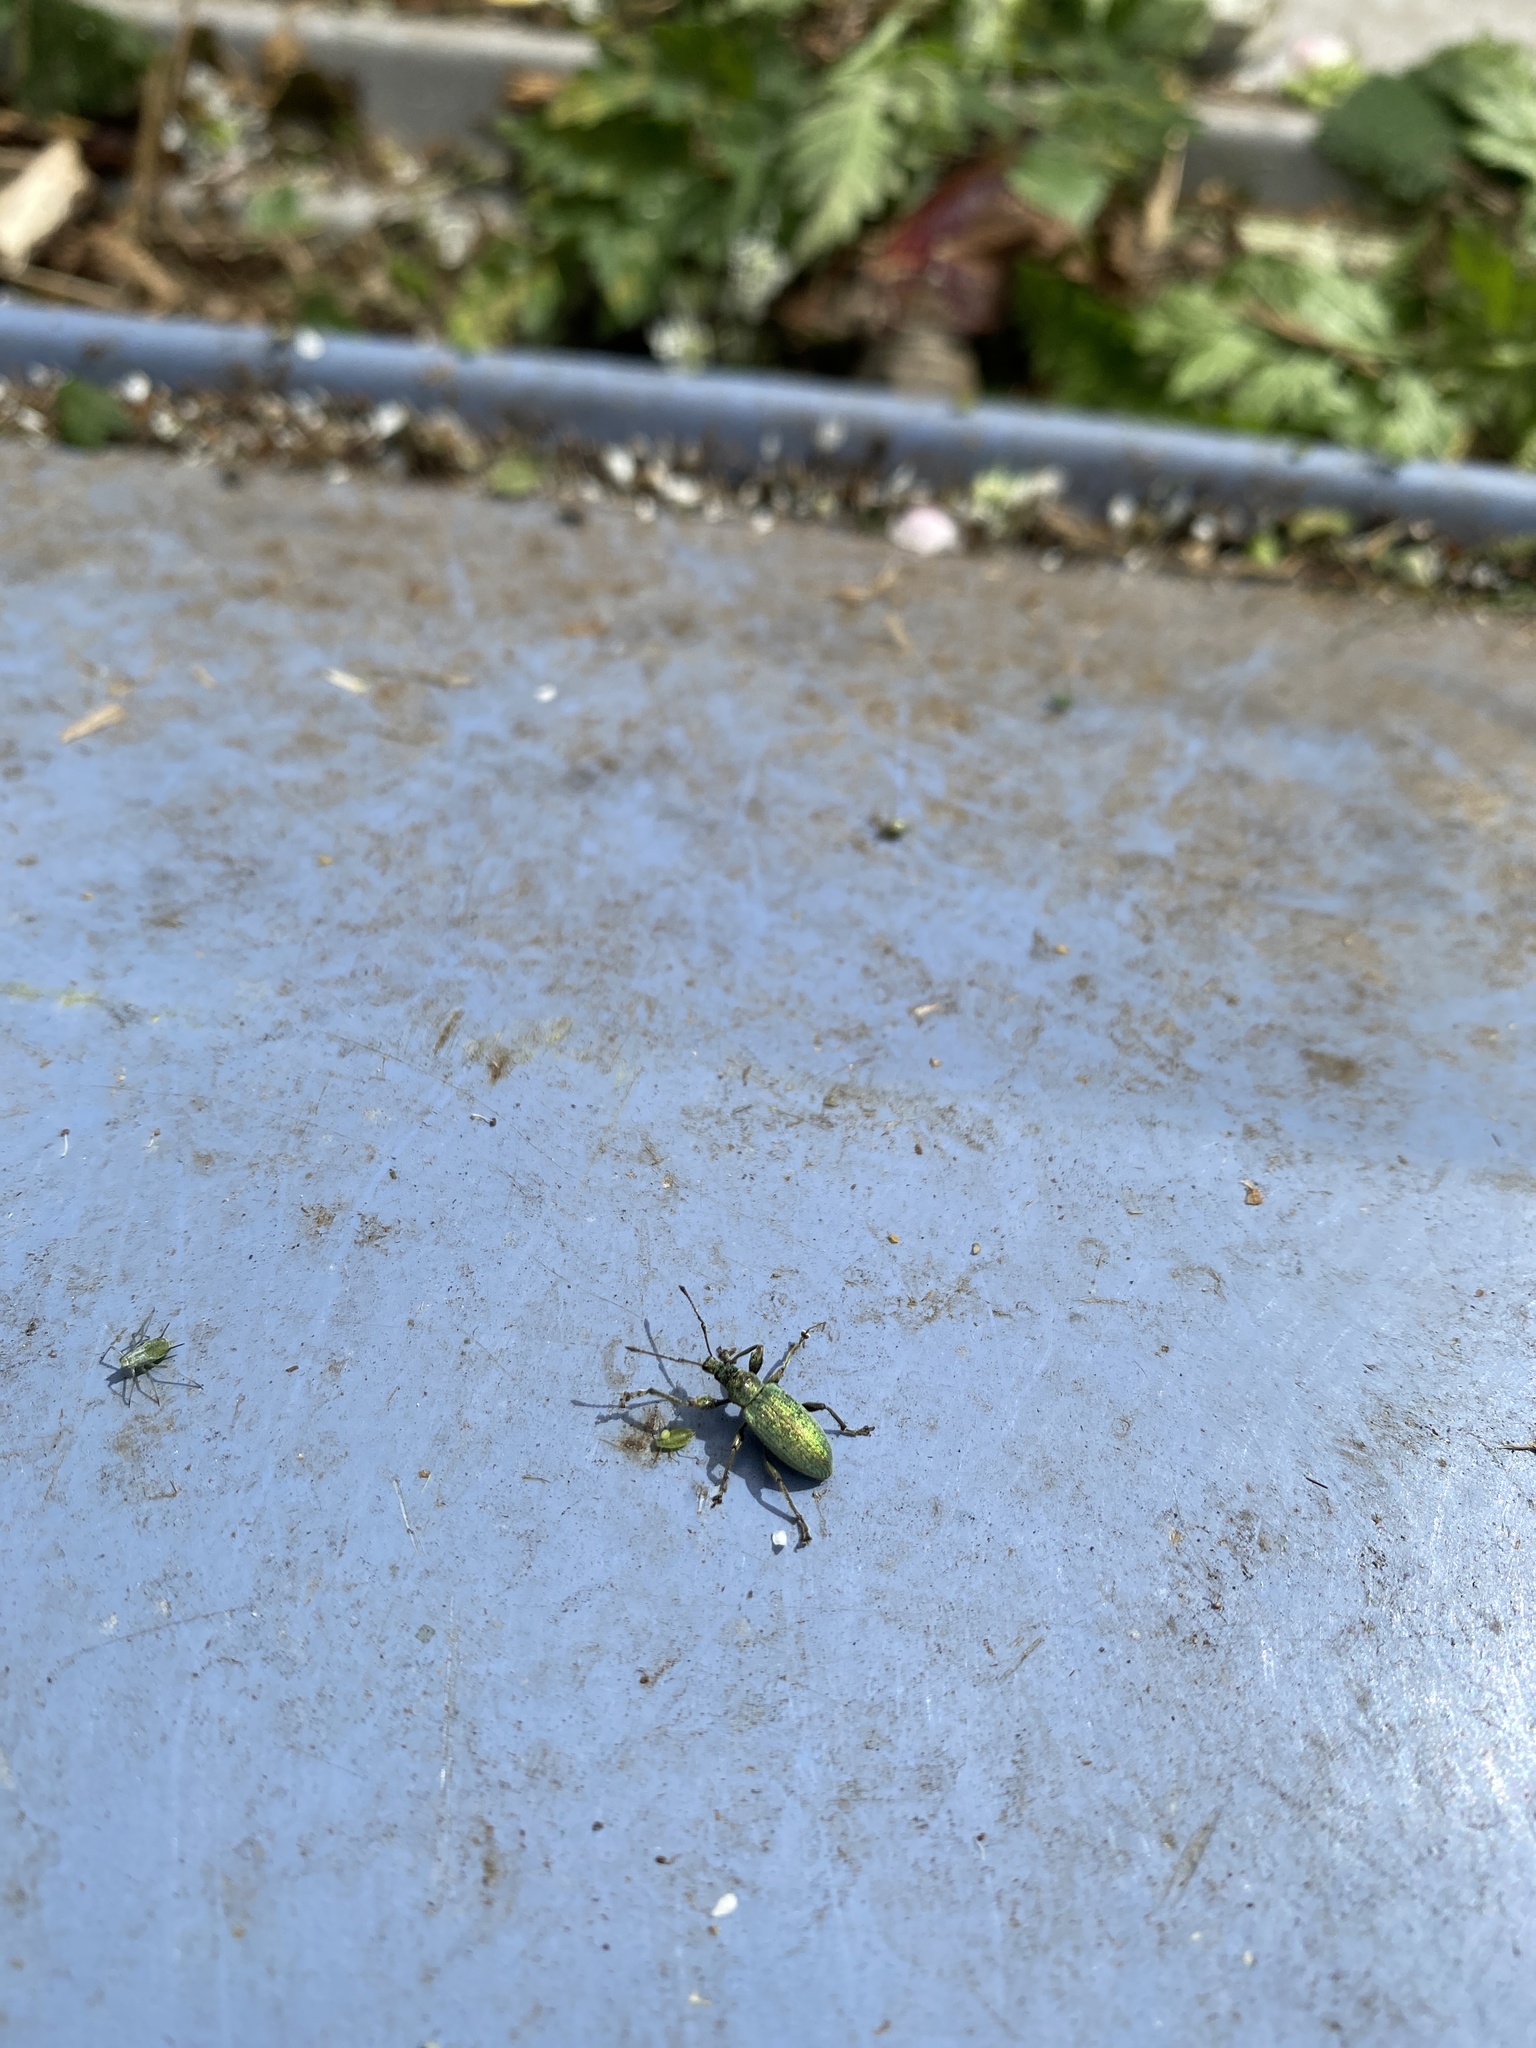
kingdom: Animalia
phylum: Arthropoda
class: Insecta
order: Coleoptera
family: Curculionidae
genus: Phyllobius
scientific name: Phyllobius pomaceus
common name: Green nettle weevil
